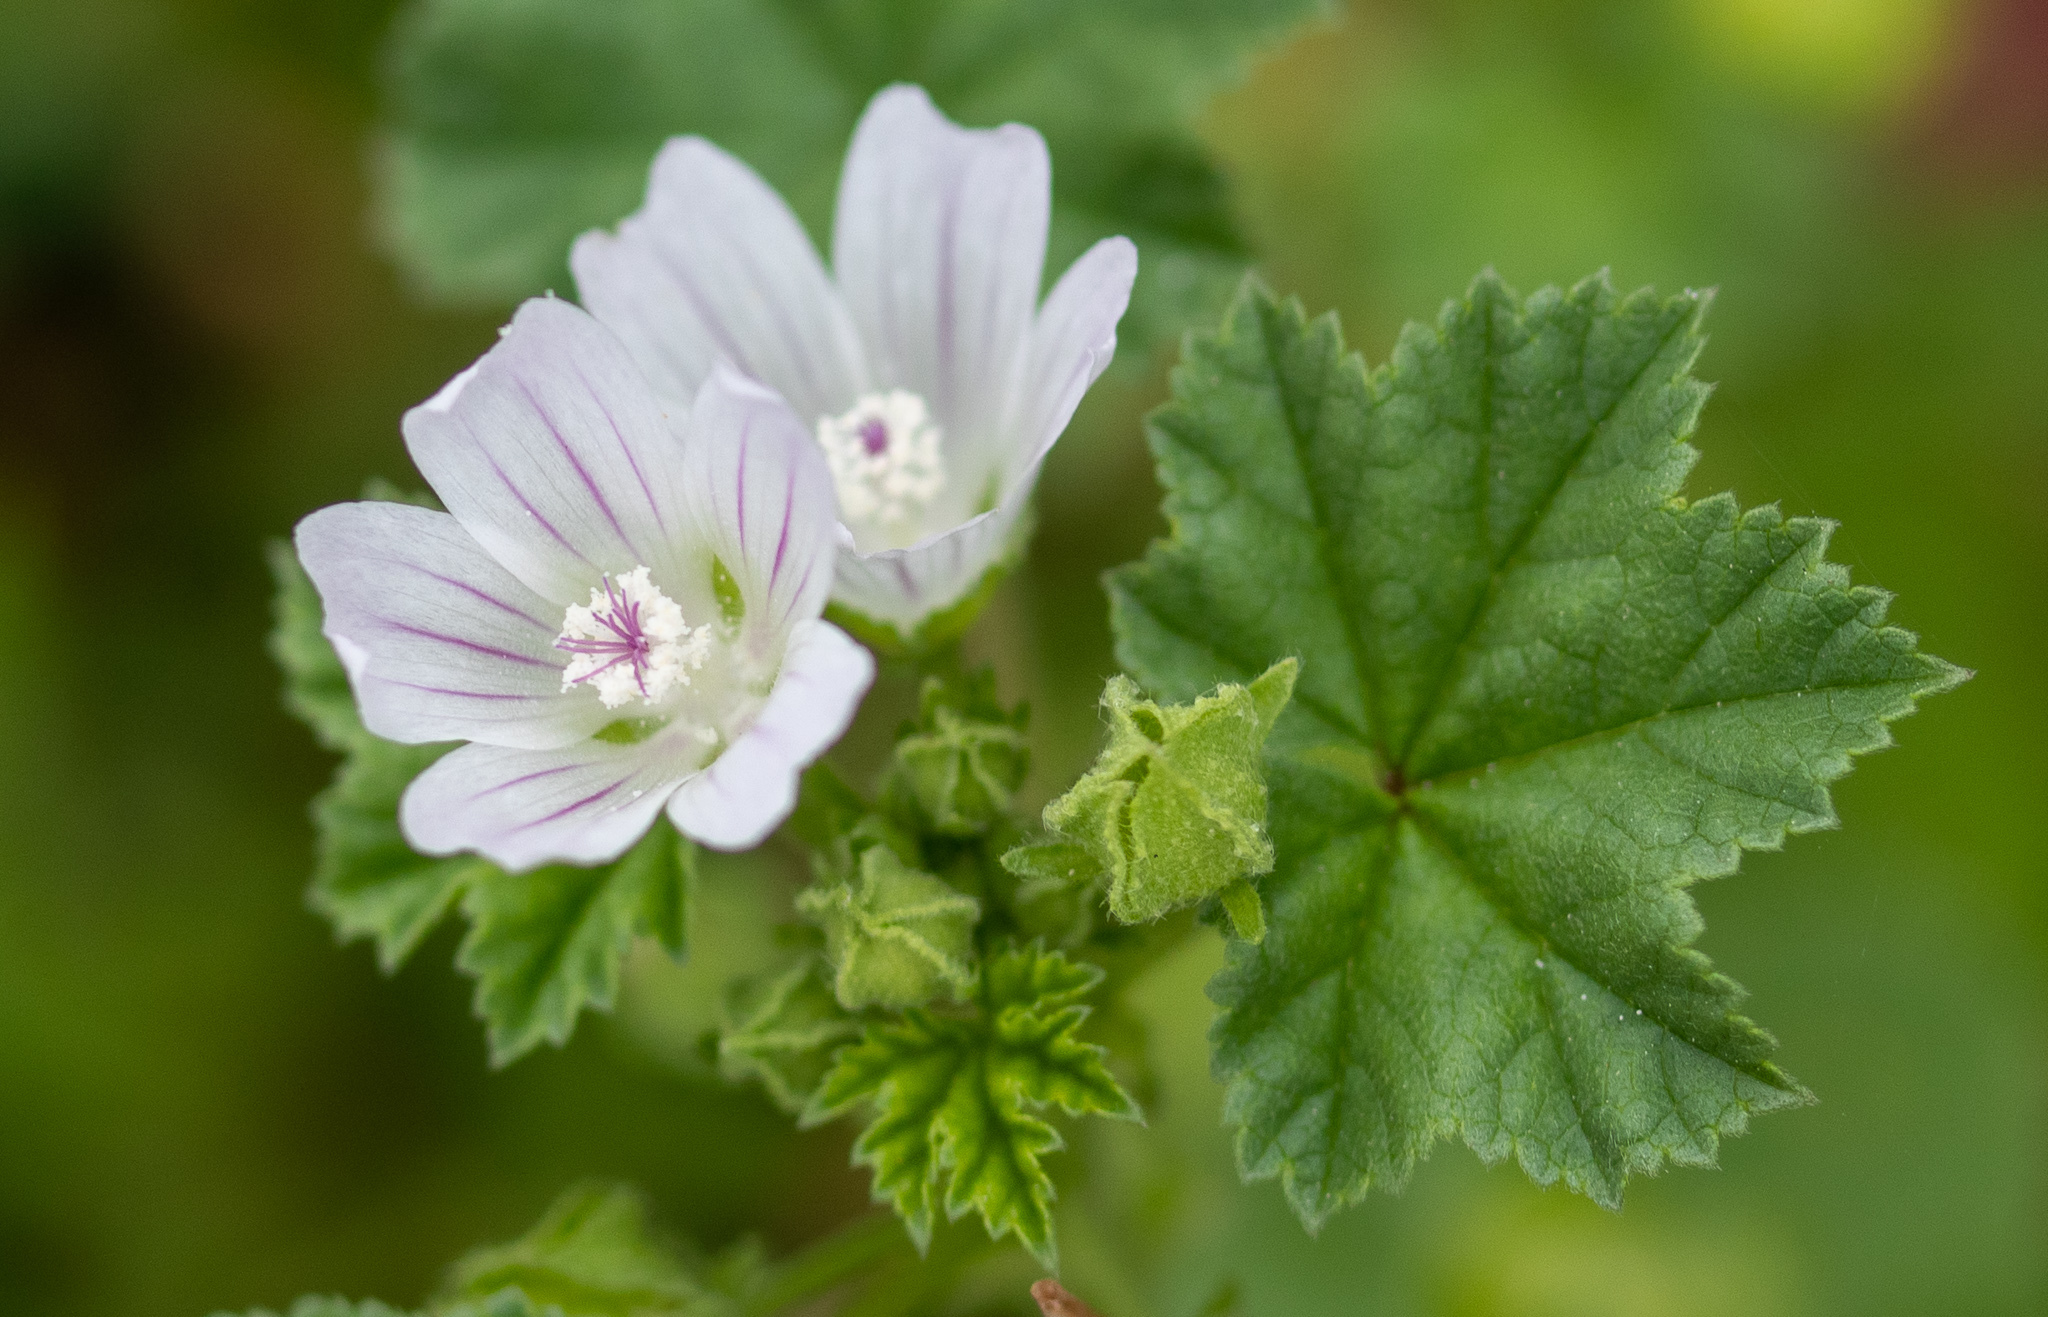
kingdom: Plantae
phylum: Tracheophyta
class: Magnoliopsida
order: Malvales
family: Malvaceae
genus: Malva
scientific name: Malva neglecta
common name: Common mallow
